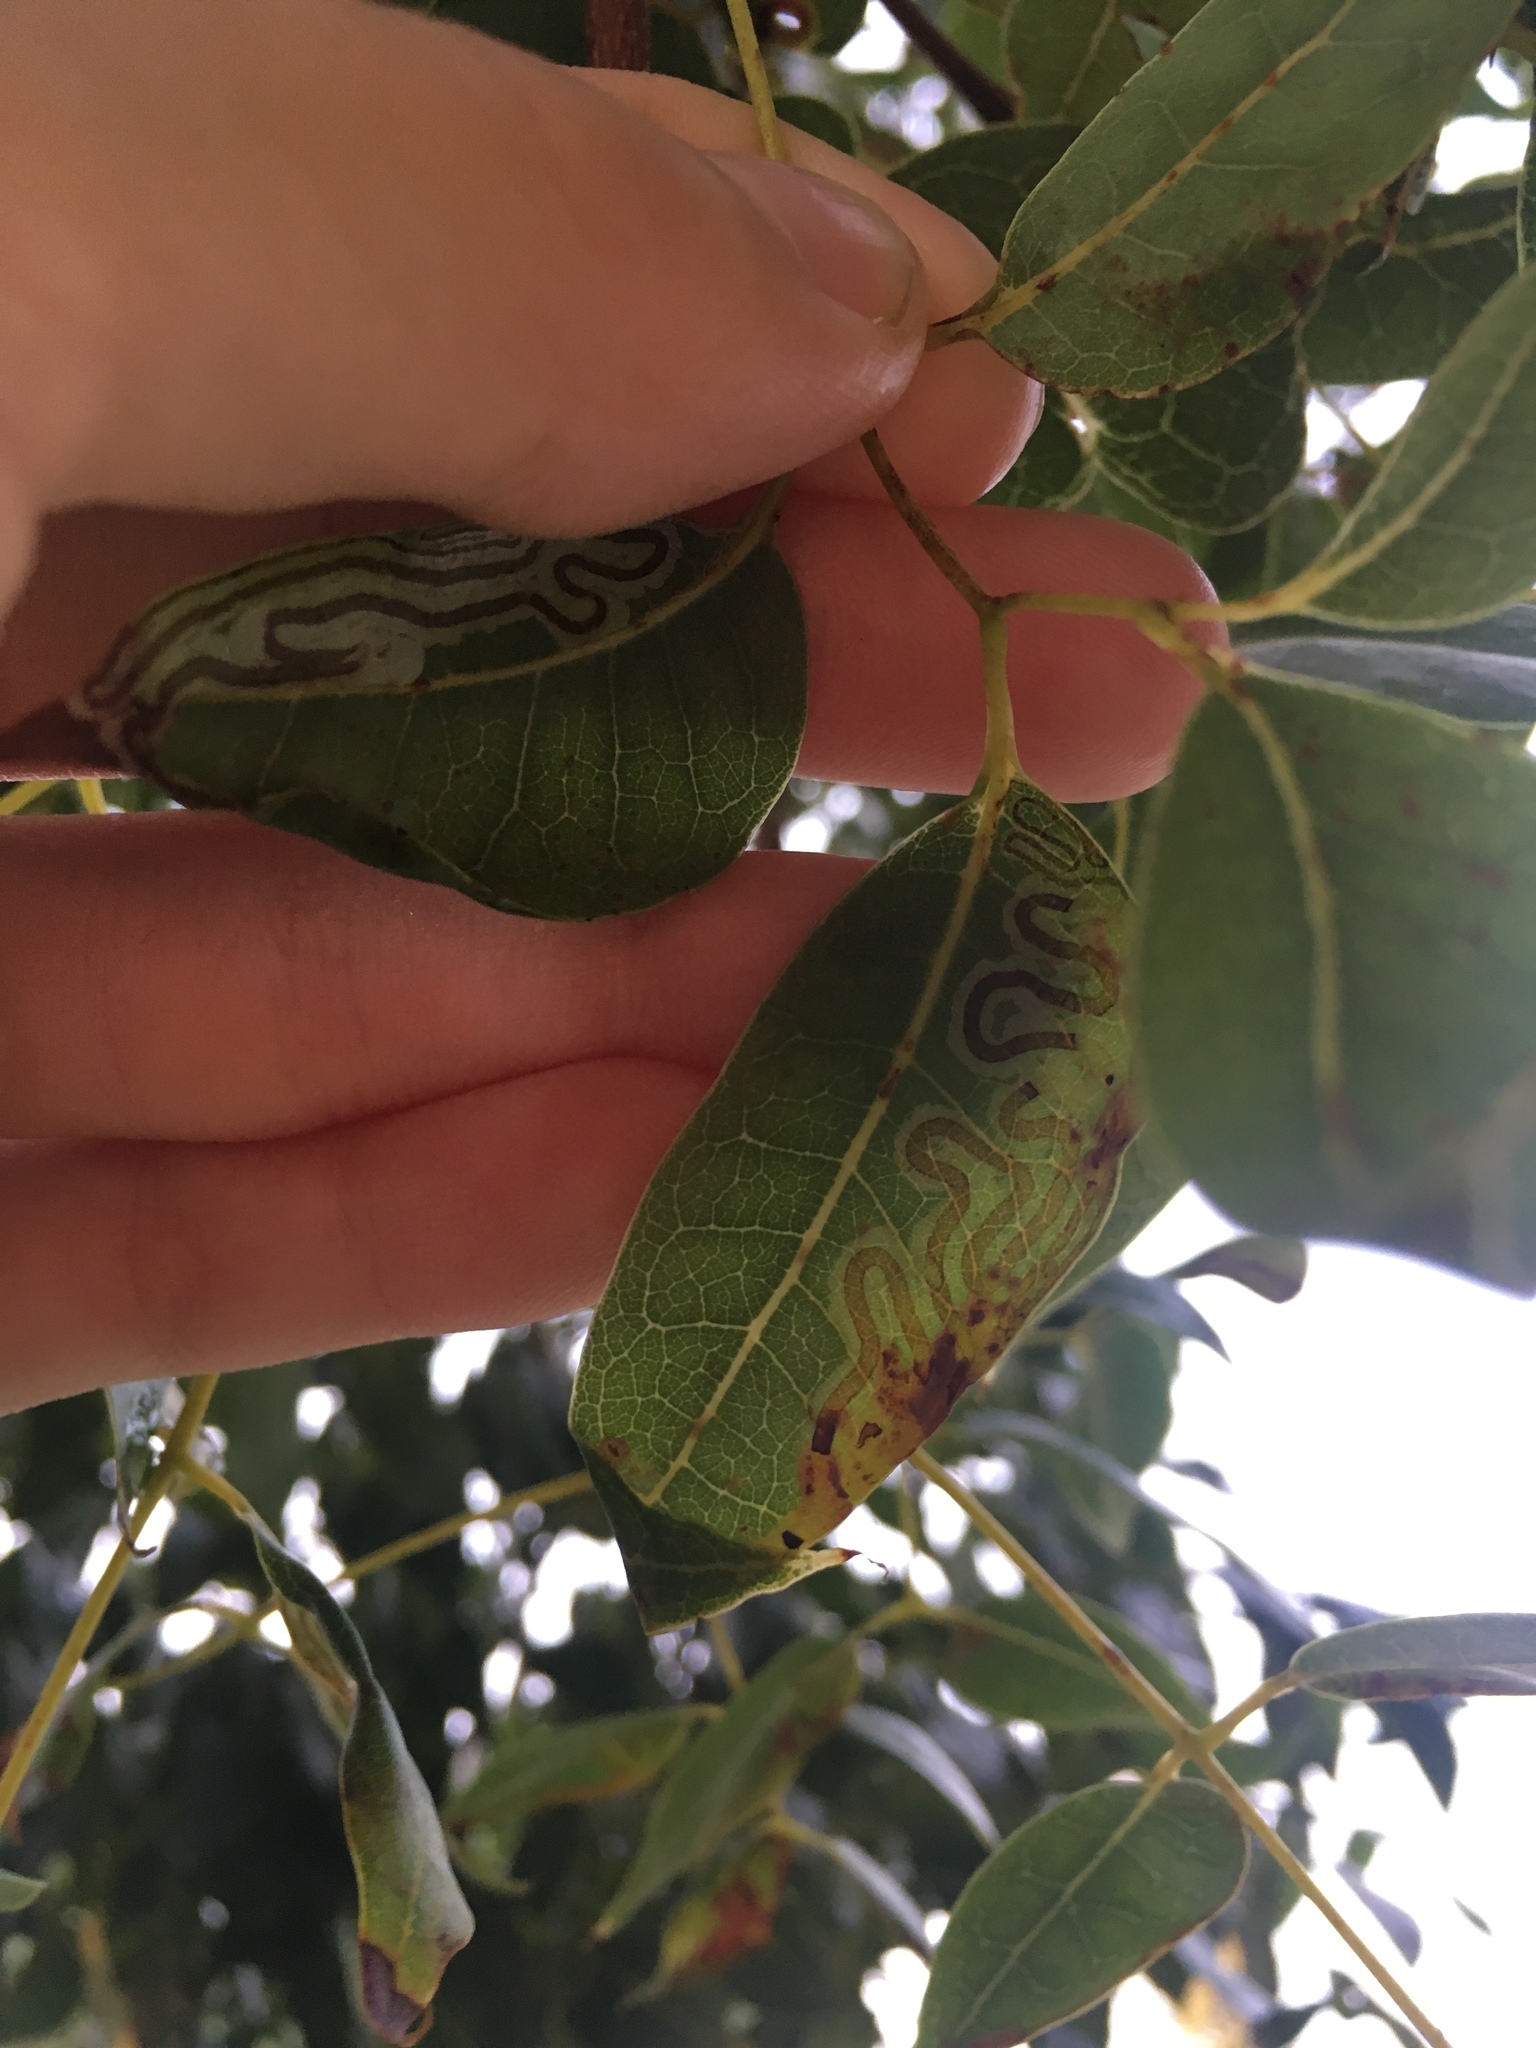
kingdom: Animalia
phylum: Arthropoda
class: Insecta
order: Lepidoptera
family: Gracillariidae
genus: Phyllocnistis
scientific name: Phyllocnistis meliacella
